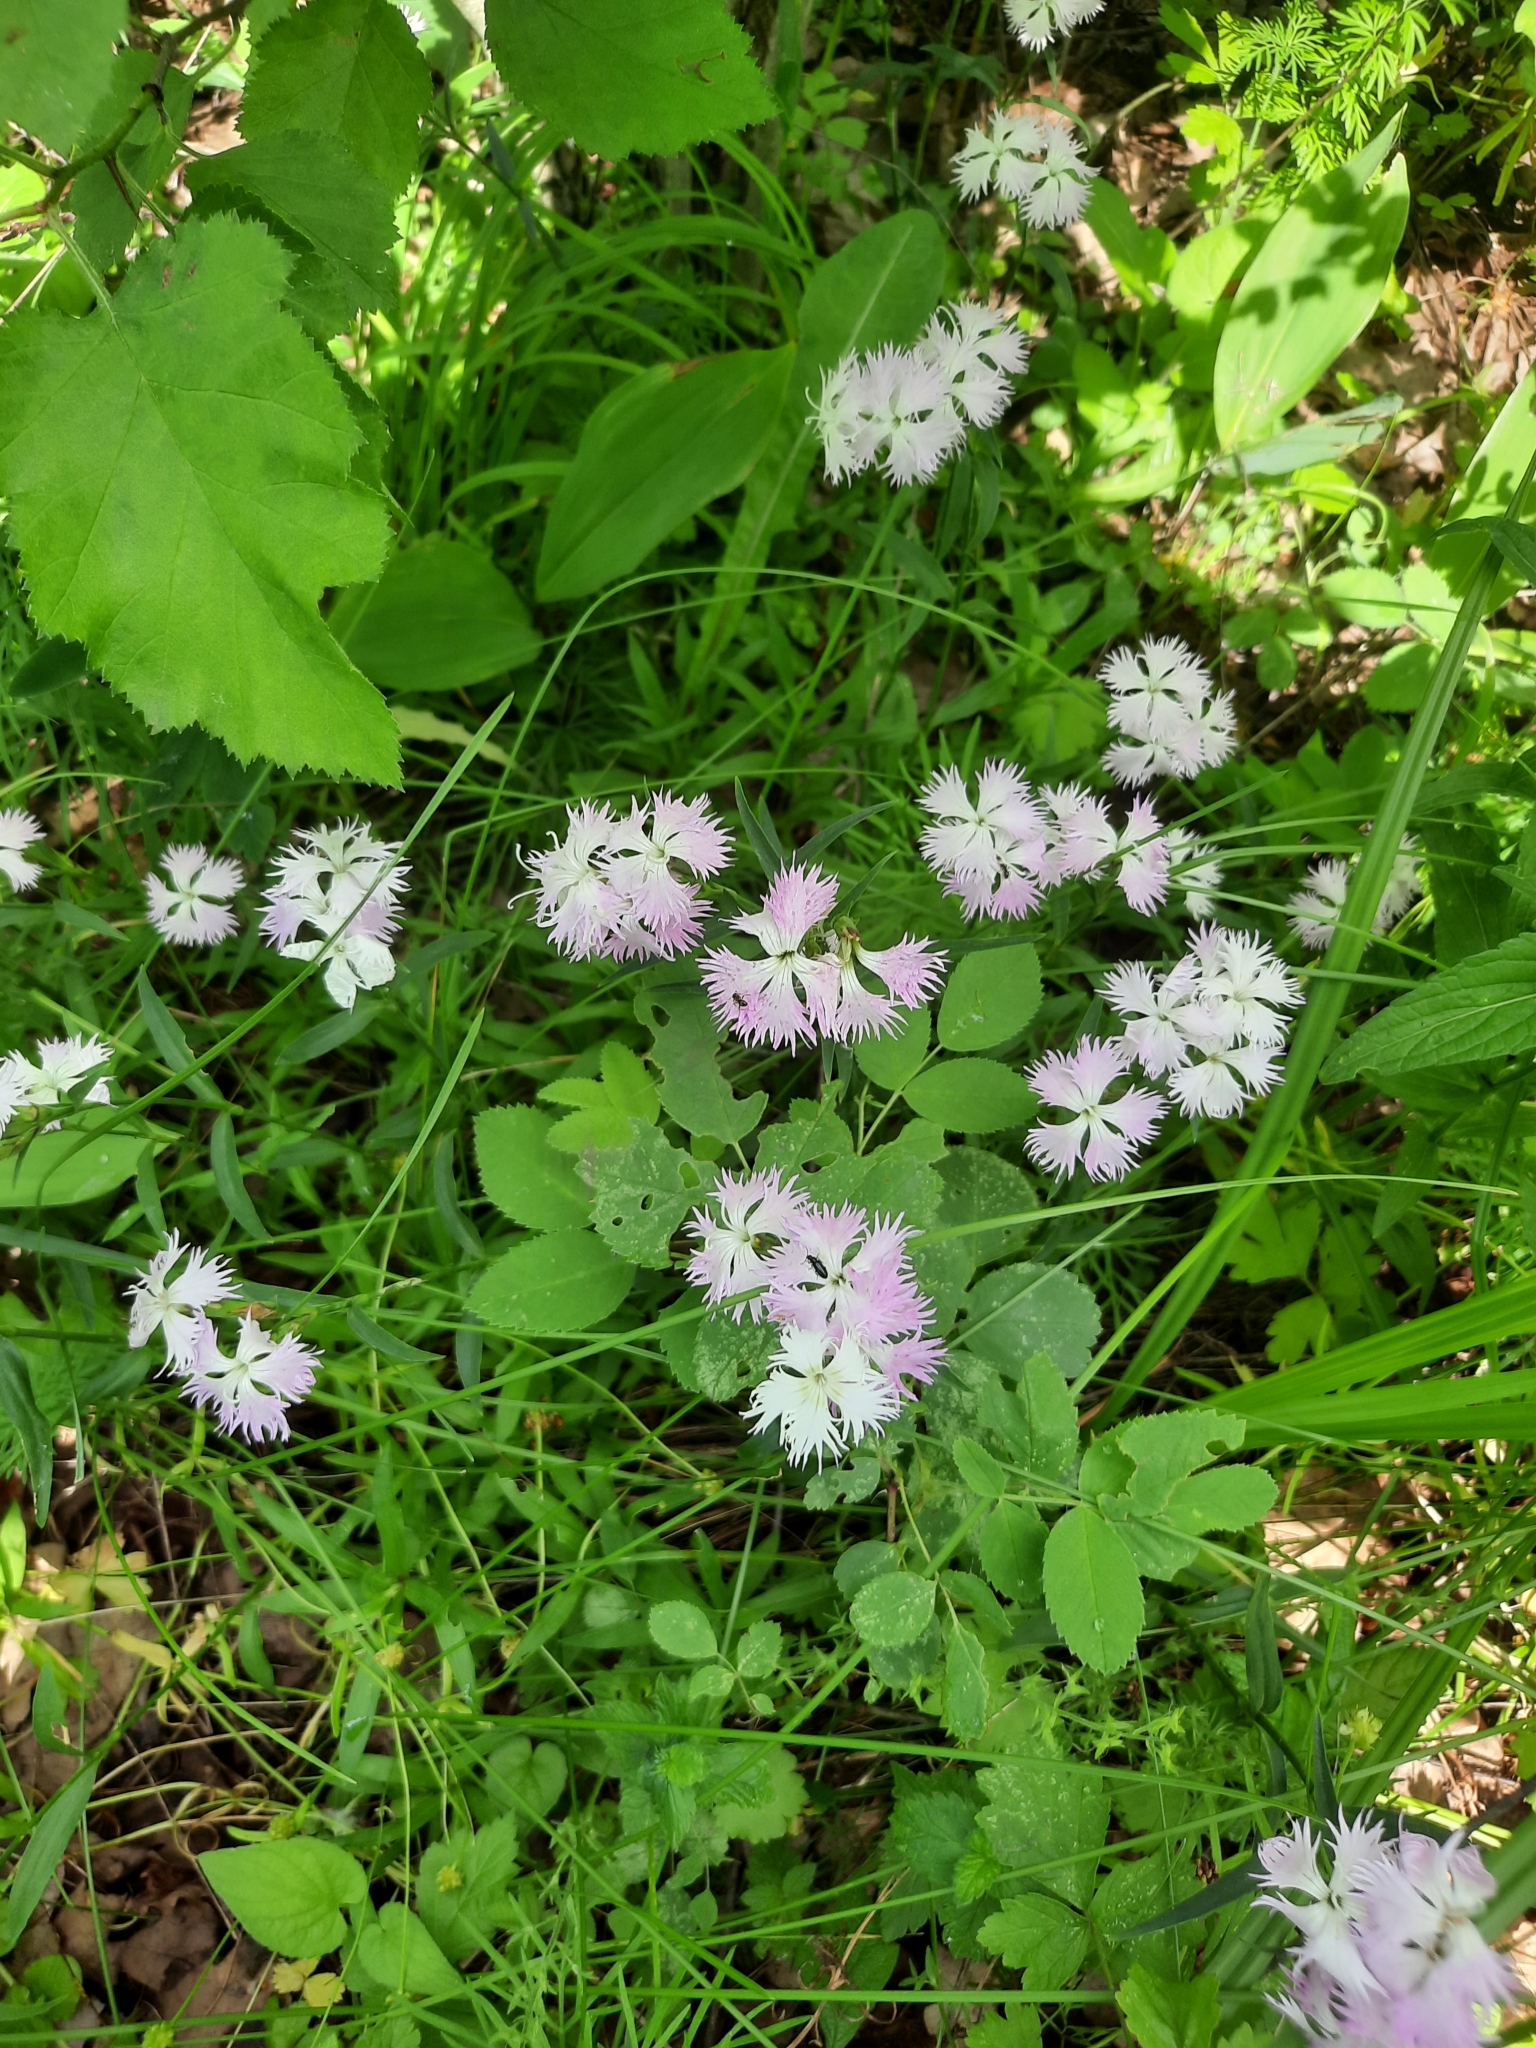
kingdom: Plantae
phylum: Tracheophyta
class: Magnoliopsida
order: Caryophyllales
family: Caryophyllaceae
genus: Dianthus
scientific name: Dianthus courtoisii
